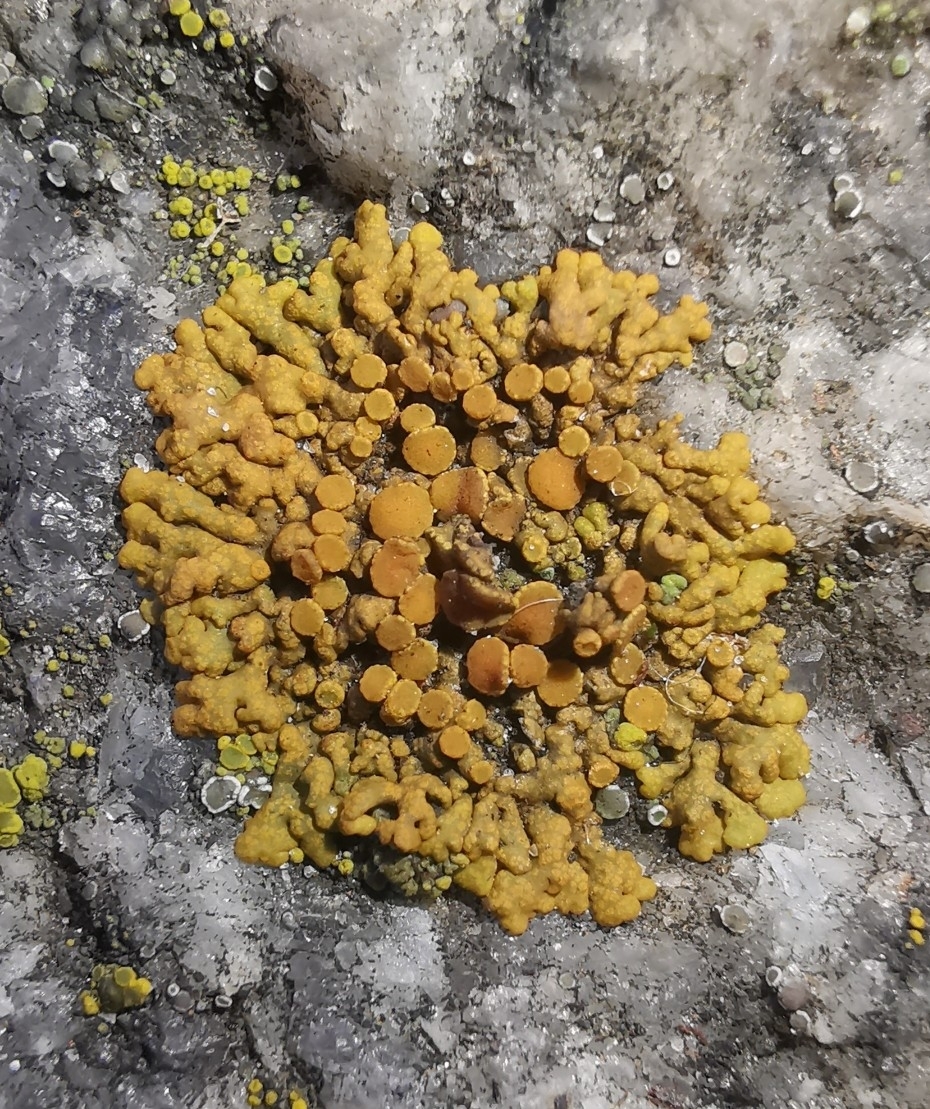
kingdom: Fungi
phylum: Ascomycota
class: Lecanoromycetes
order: Teloschistales
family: Teloschistaceae
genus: Xanthoria
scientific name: Xanthoria elegans
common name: Elegant sunburst lichen
